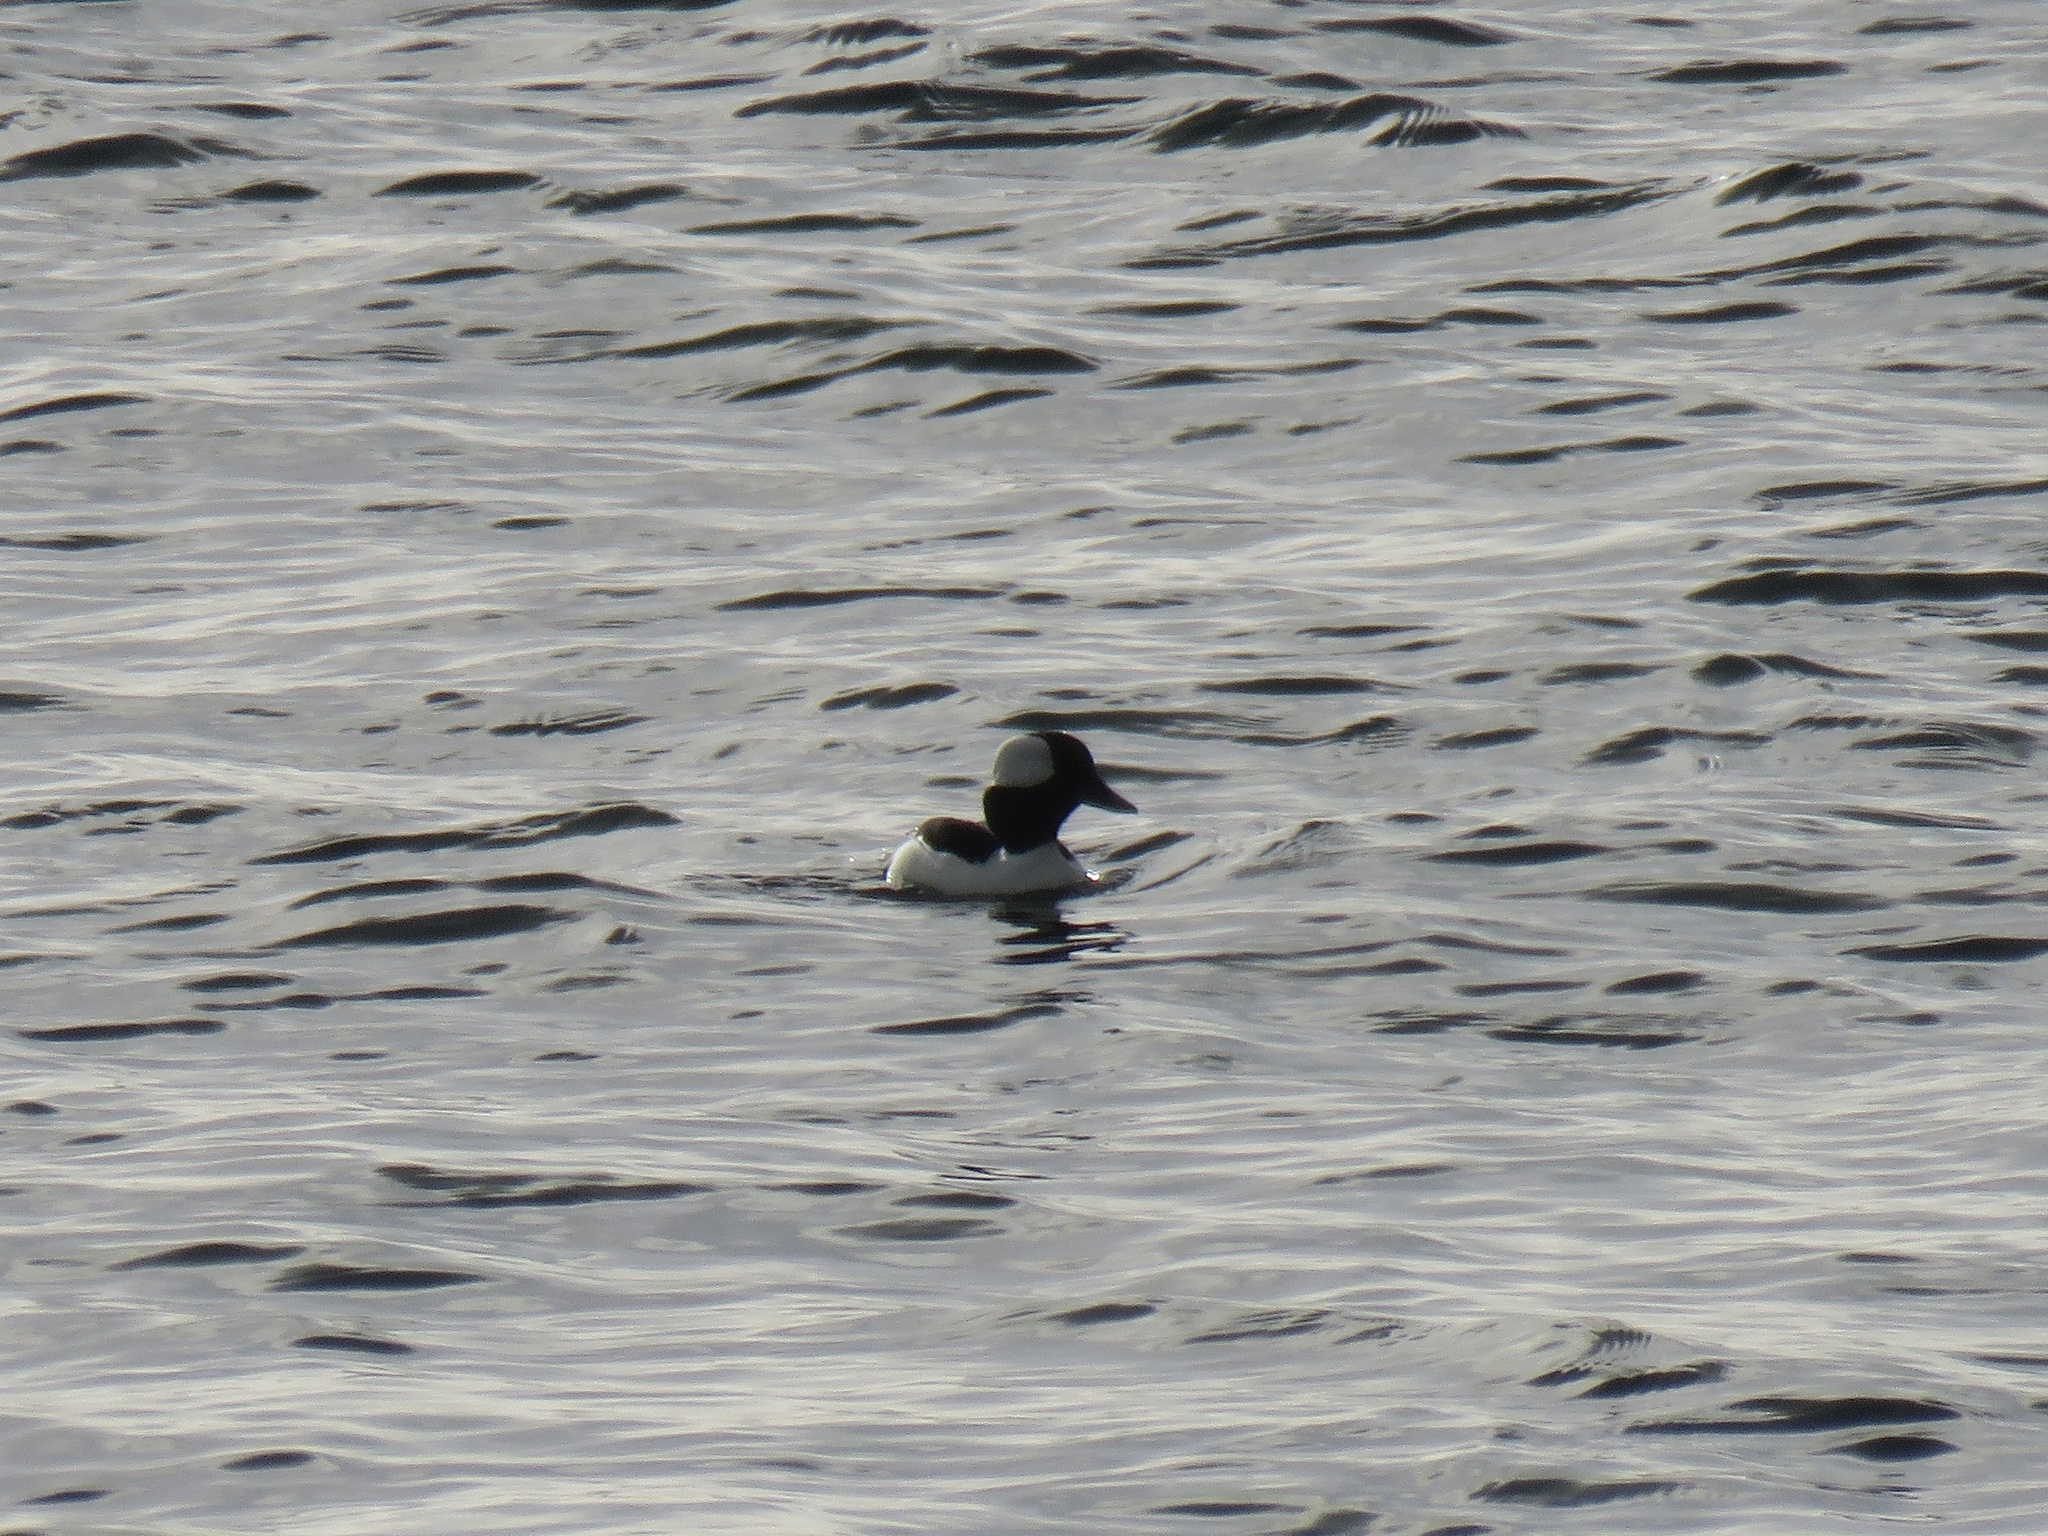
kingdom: Animalia
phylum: Chordata
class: Aves
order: Anseriformes
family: Anatidae
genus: Bucephala
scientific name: Bucephala albeola
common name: Bufflehead
